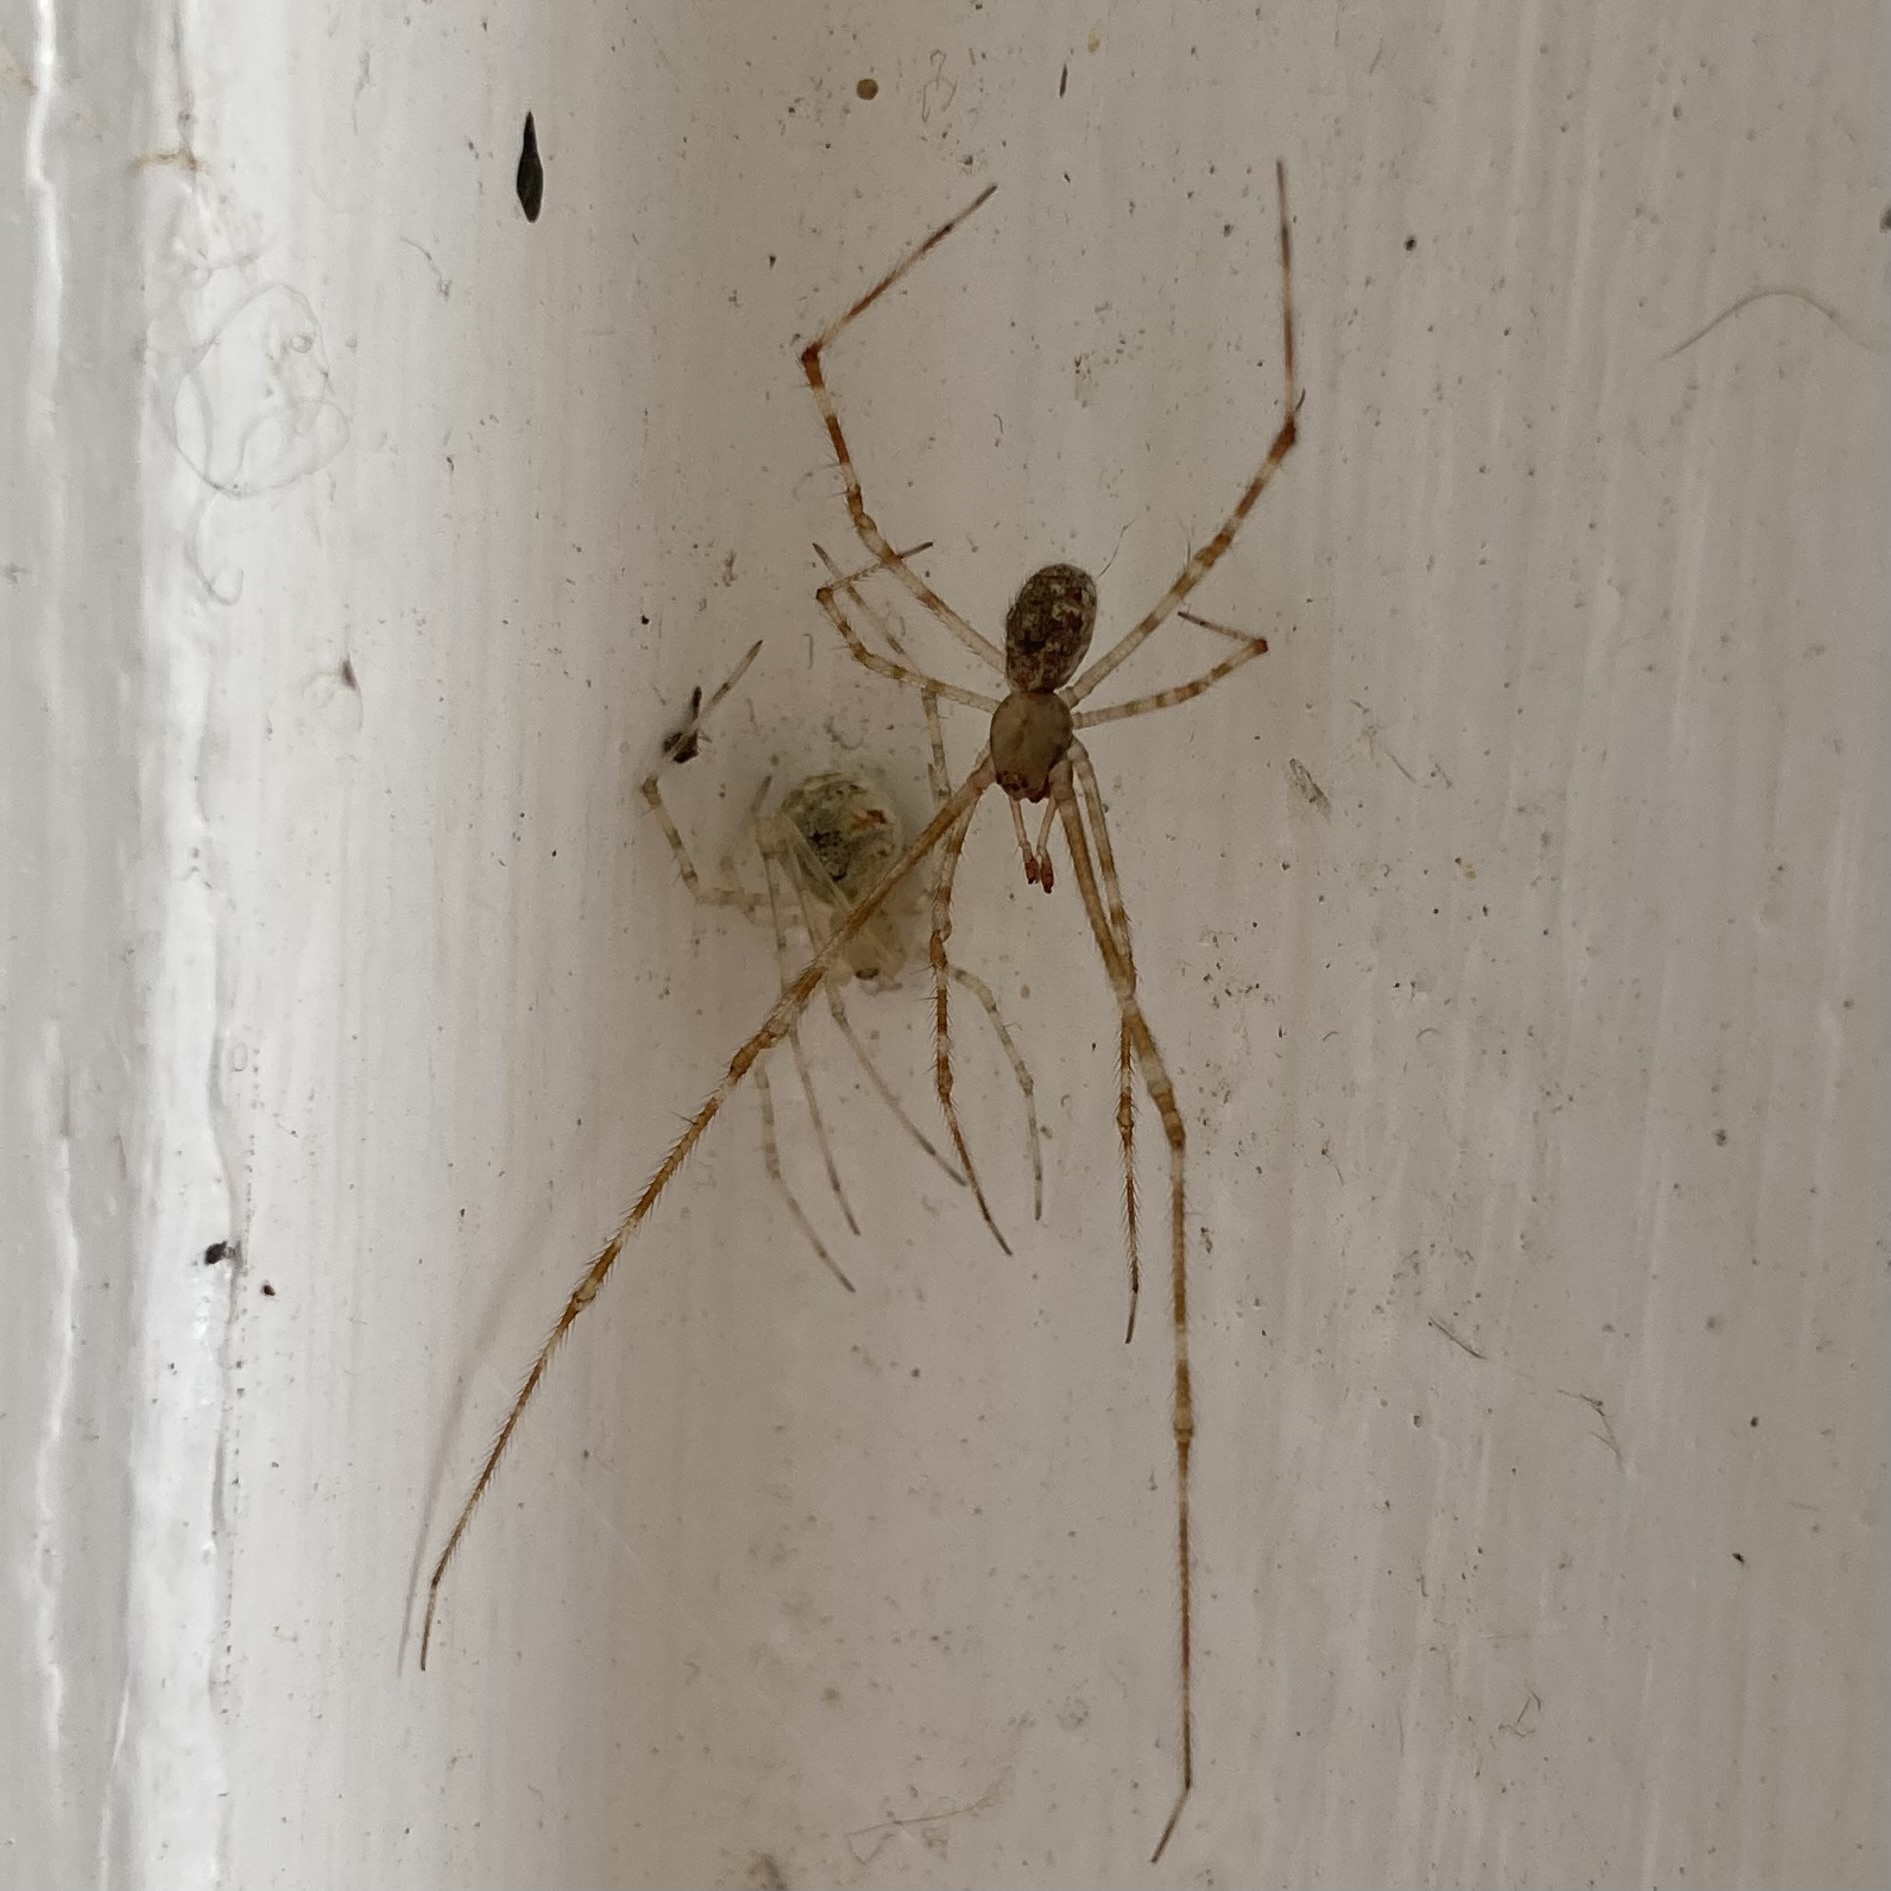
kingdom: Animalia
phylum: Arthropoda
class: Arachnida
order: Araneae
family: Theridiidae
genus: Cryptachaea
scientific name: Cryptachaea gigantipes
